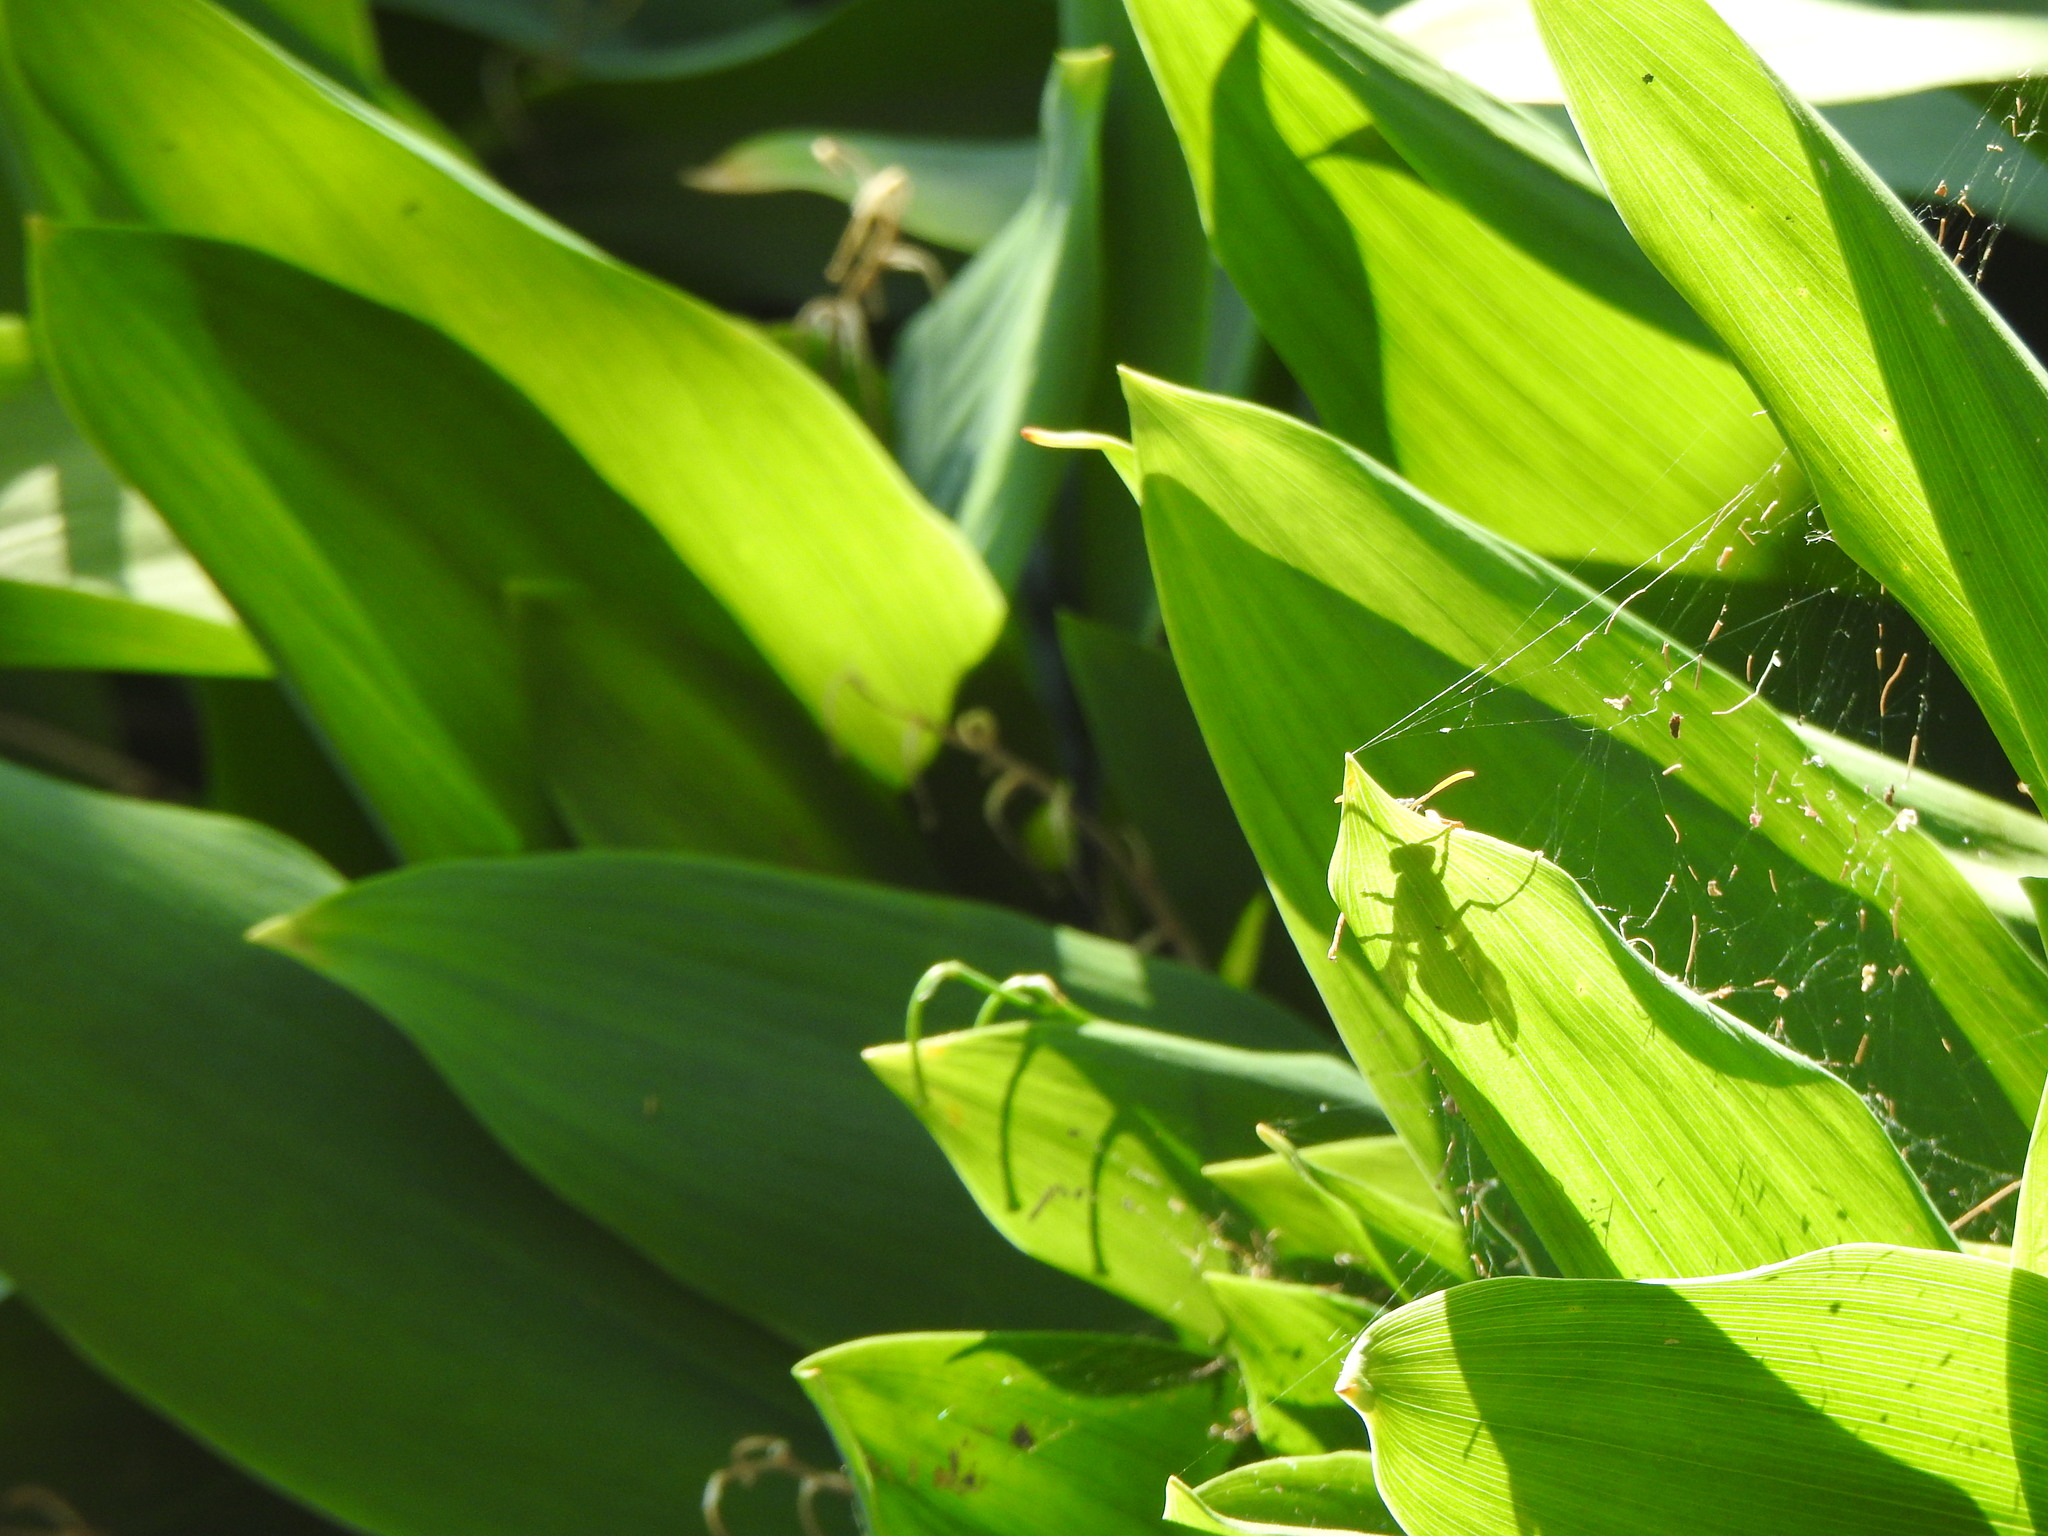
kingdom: Animalia
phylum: Arthropoda
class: Insecta
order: Hymenoptera
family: Eumenidae
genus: Polistes
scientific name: Polistes dominula
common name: Paper wasp
